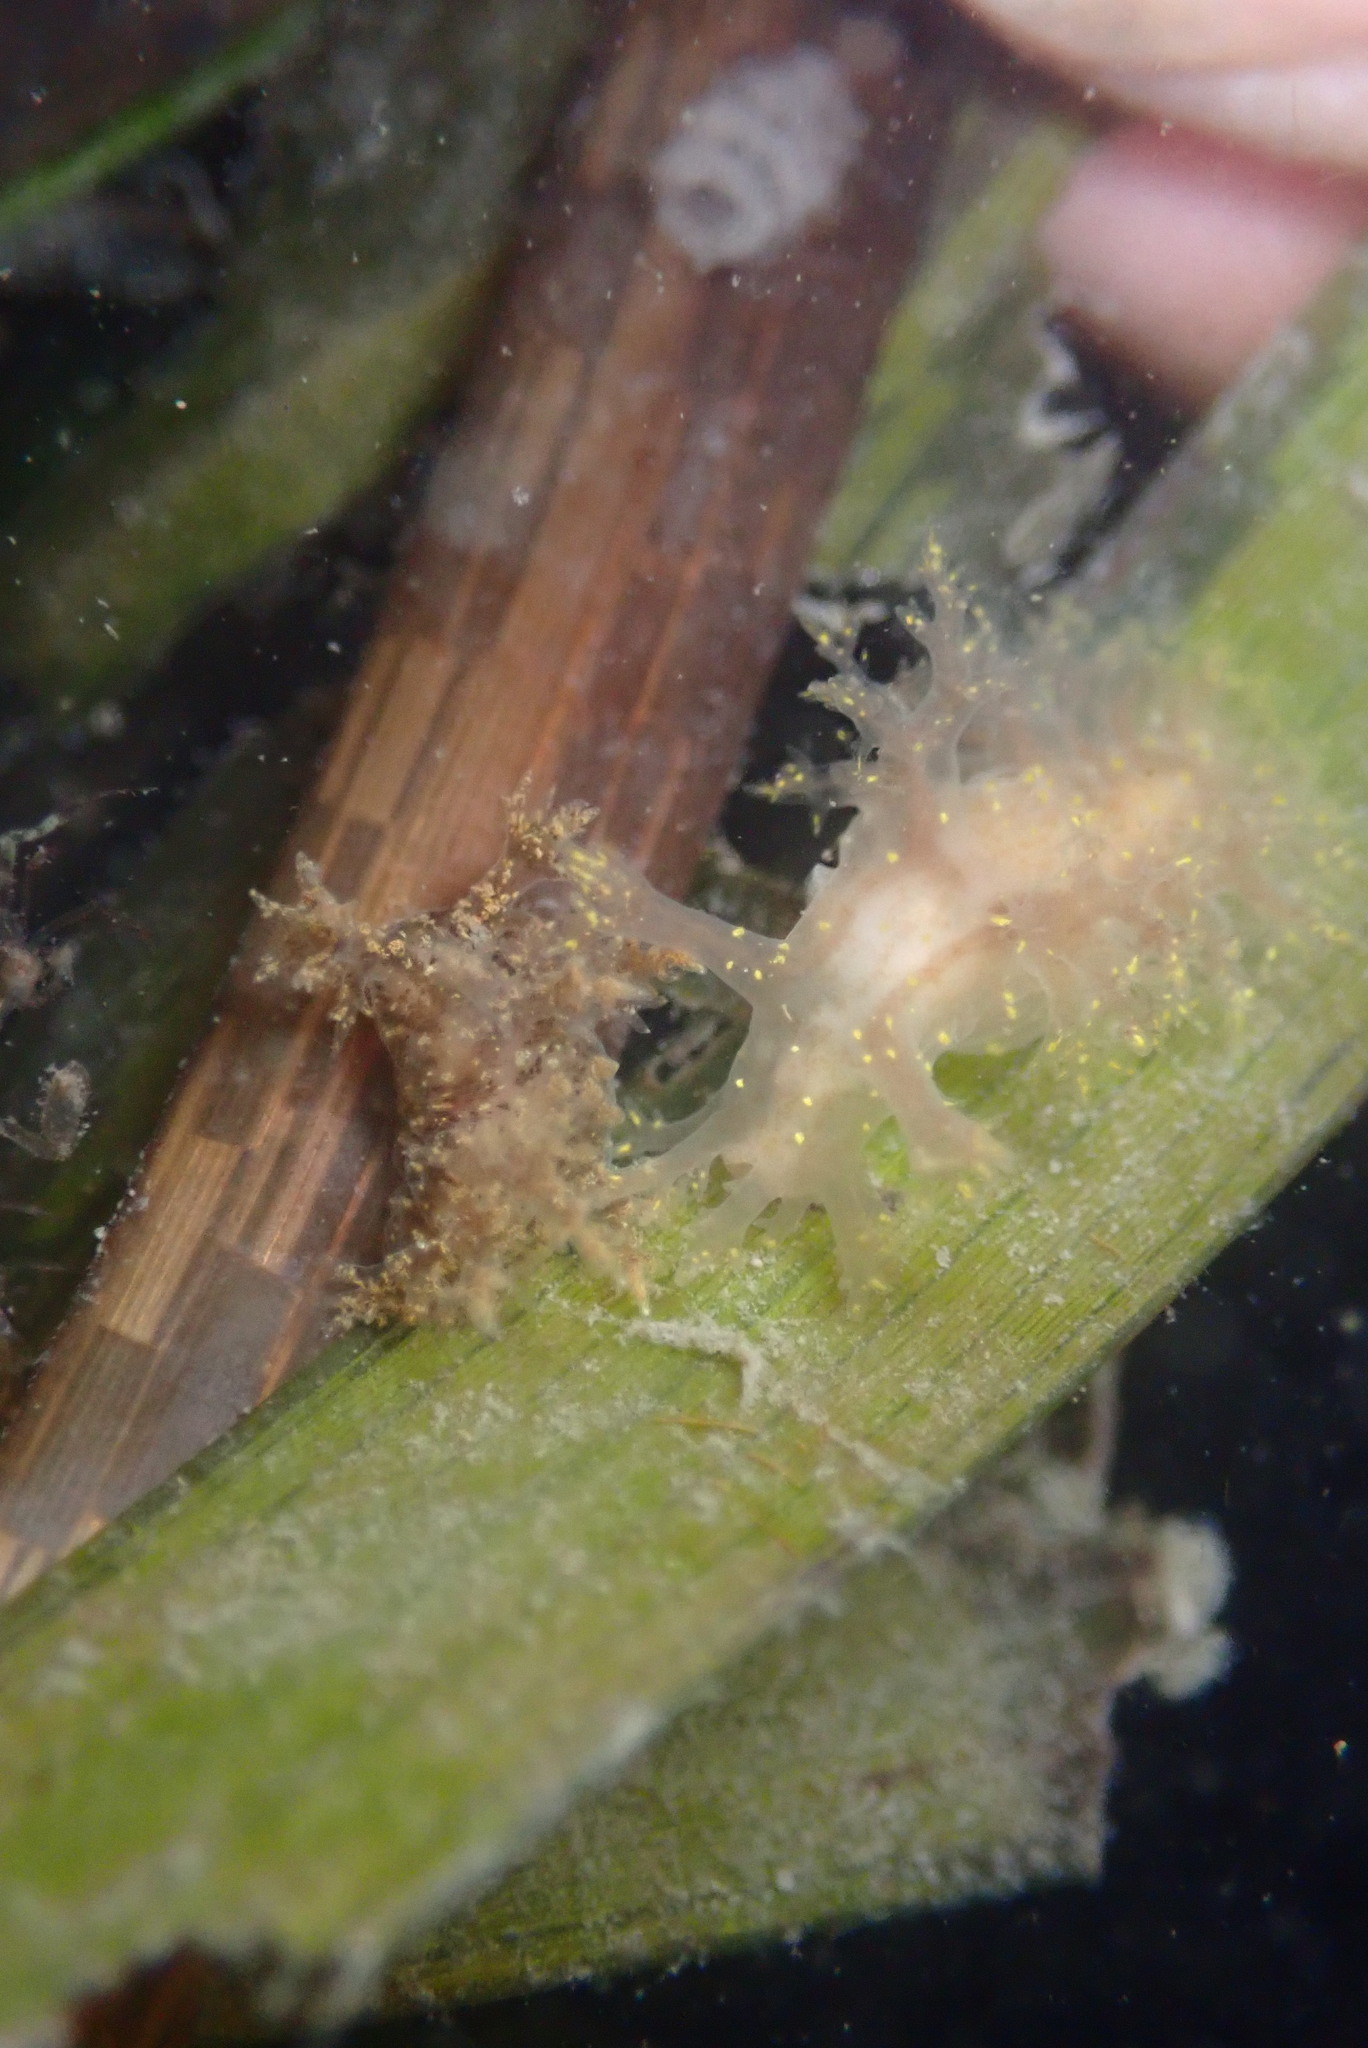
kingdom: Animalia
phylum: Mollusca
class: Gastropoda
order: Nudibranchia
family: Dendronotidae
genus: Dendronotus
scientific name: Dendronotus venustus
